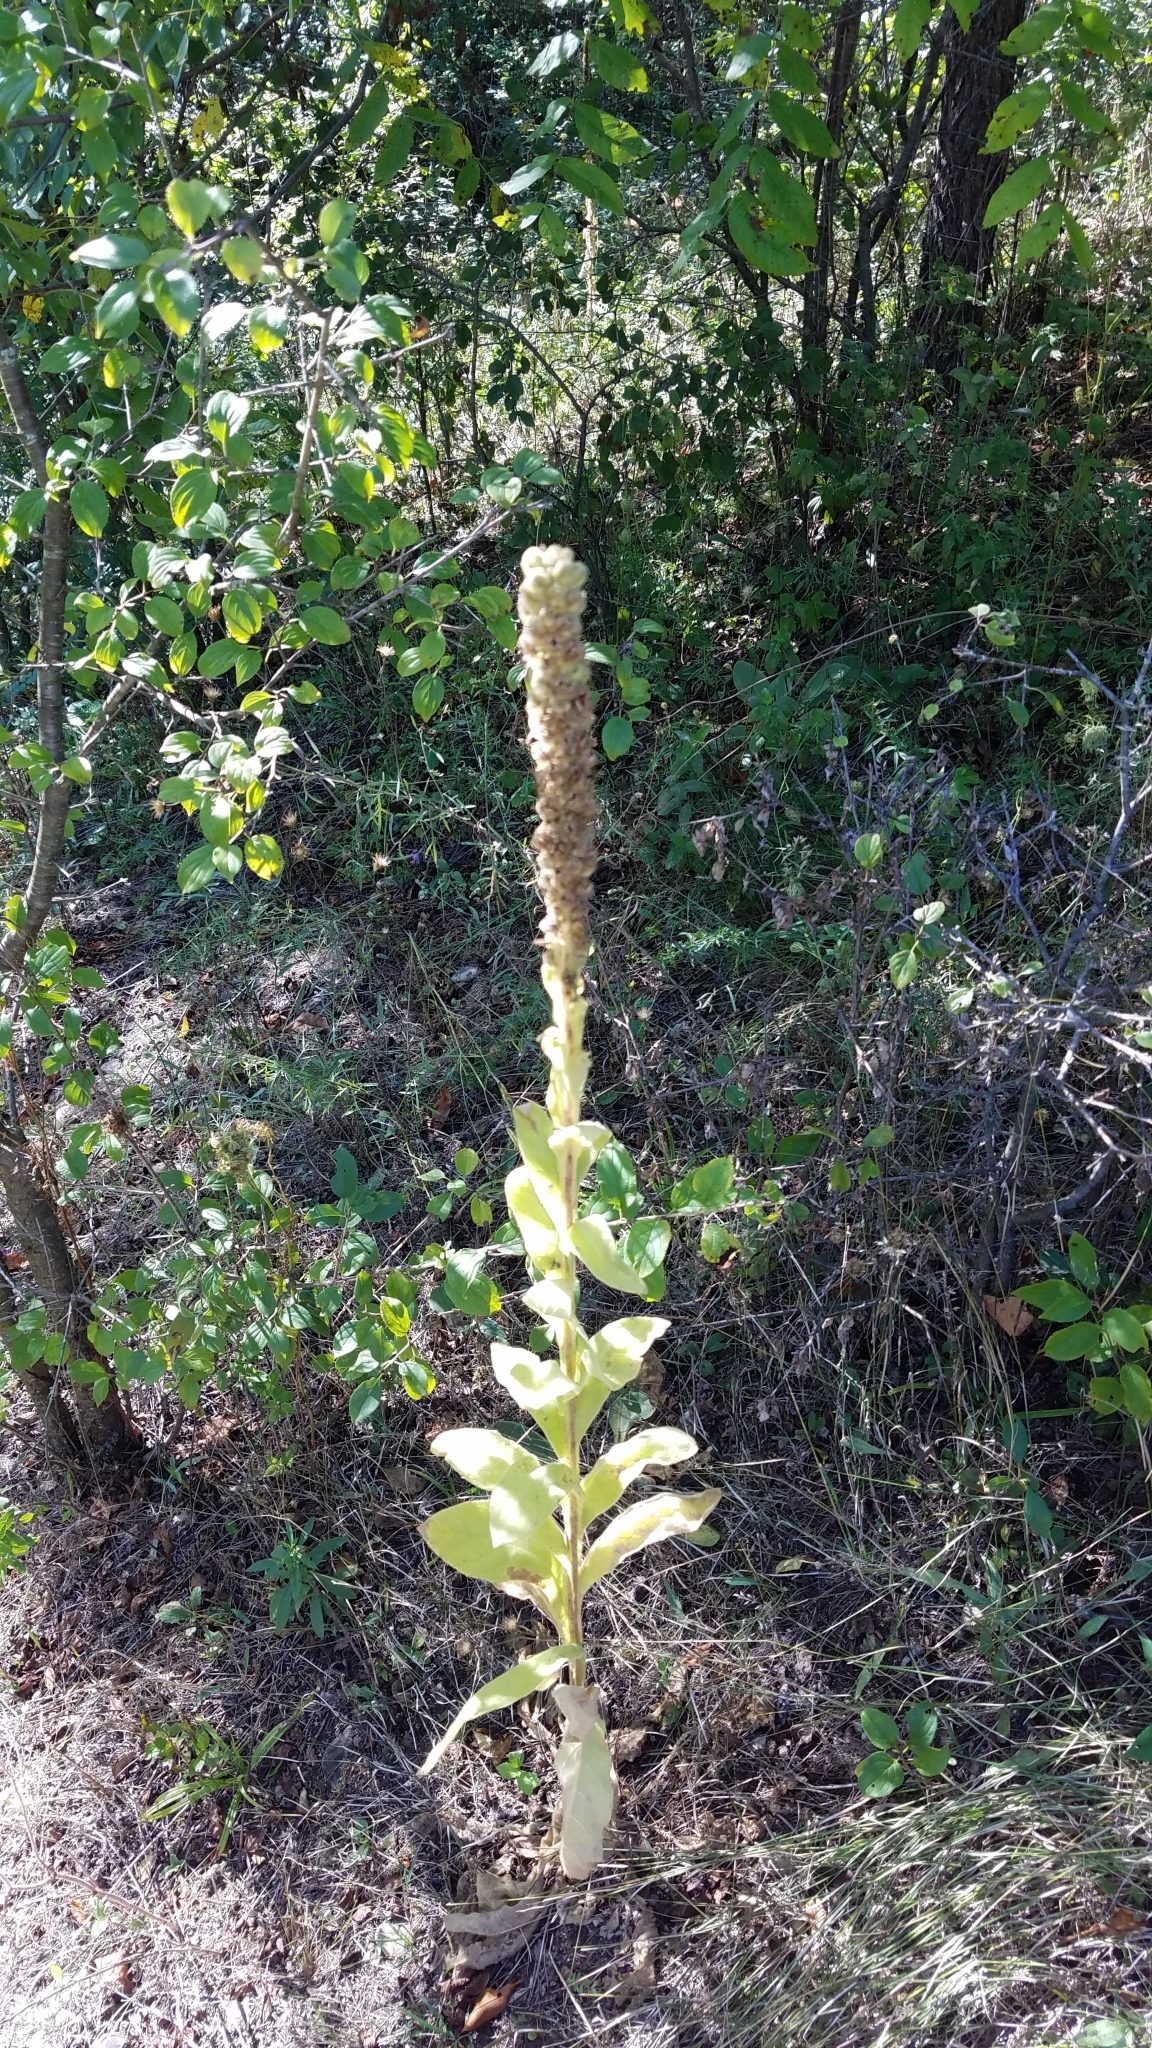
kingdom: Plantae
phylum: Tracheophyta
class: Magnoliopsida
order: Lamiales
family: Scrophulariaceae
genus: Verbascum
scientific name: Verbascum thapsus
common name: Common mullein
